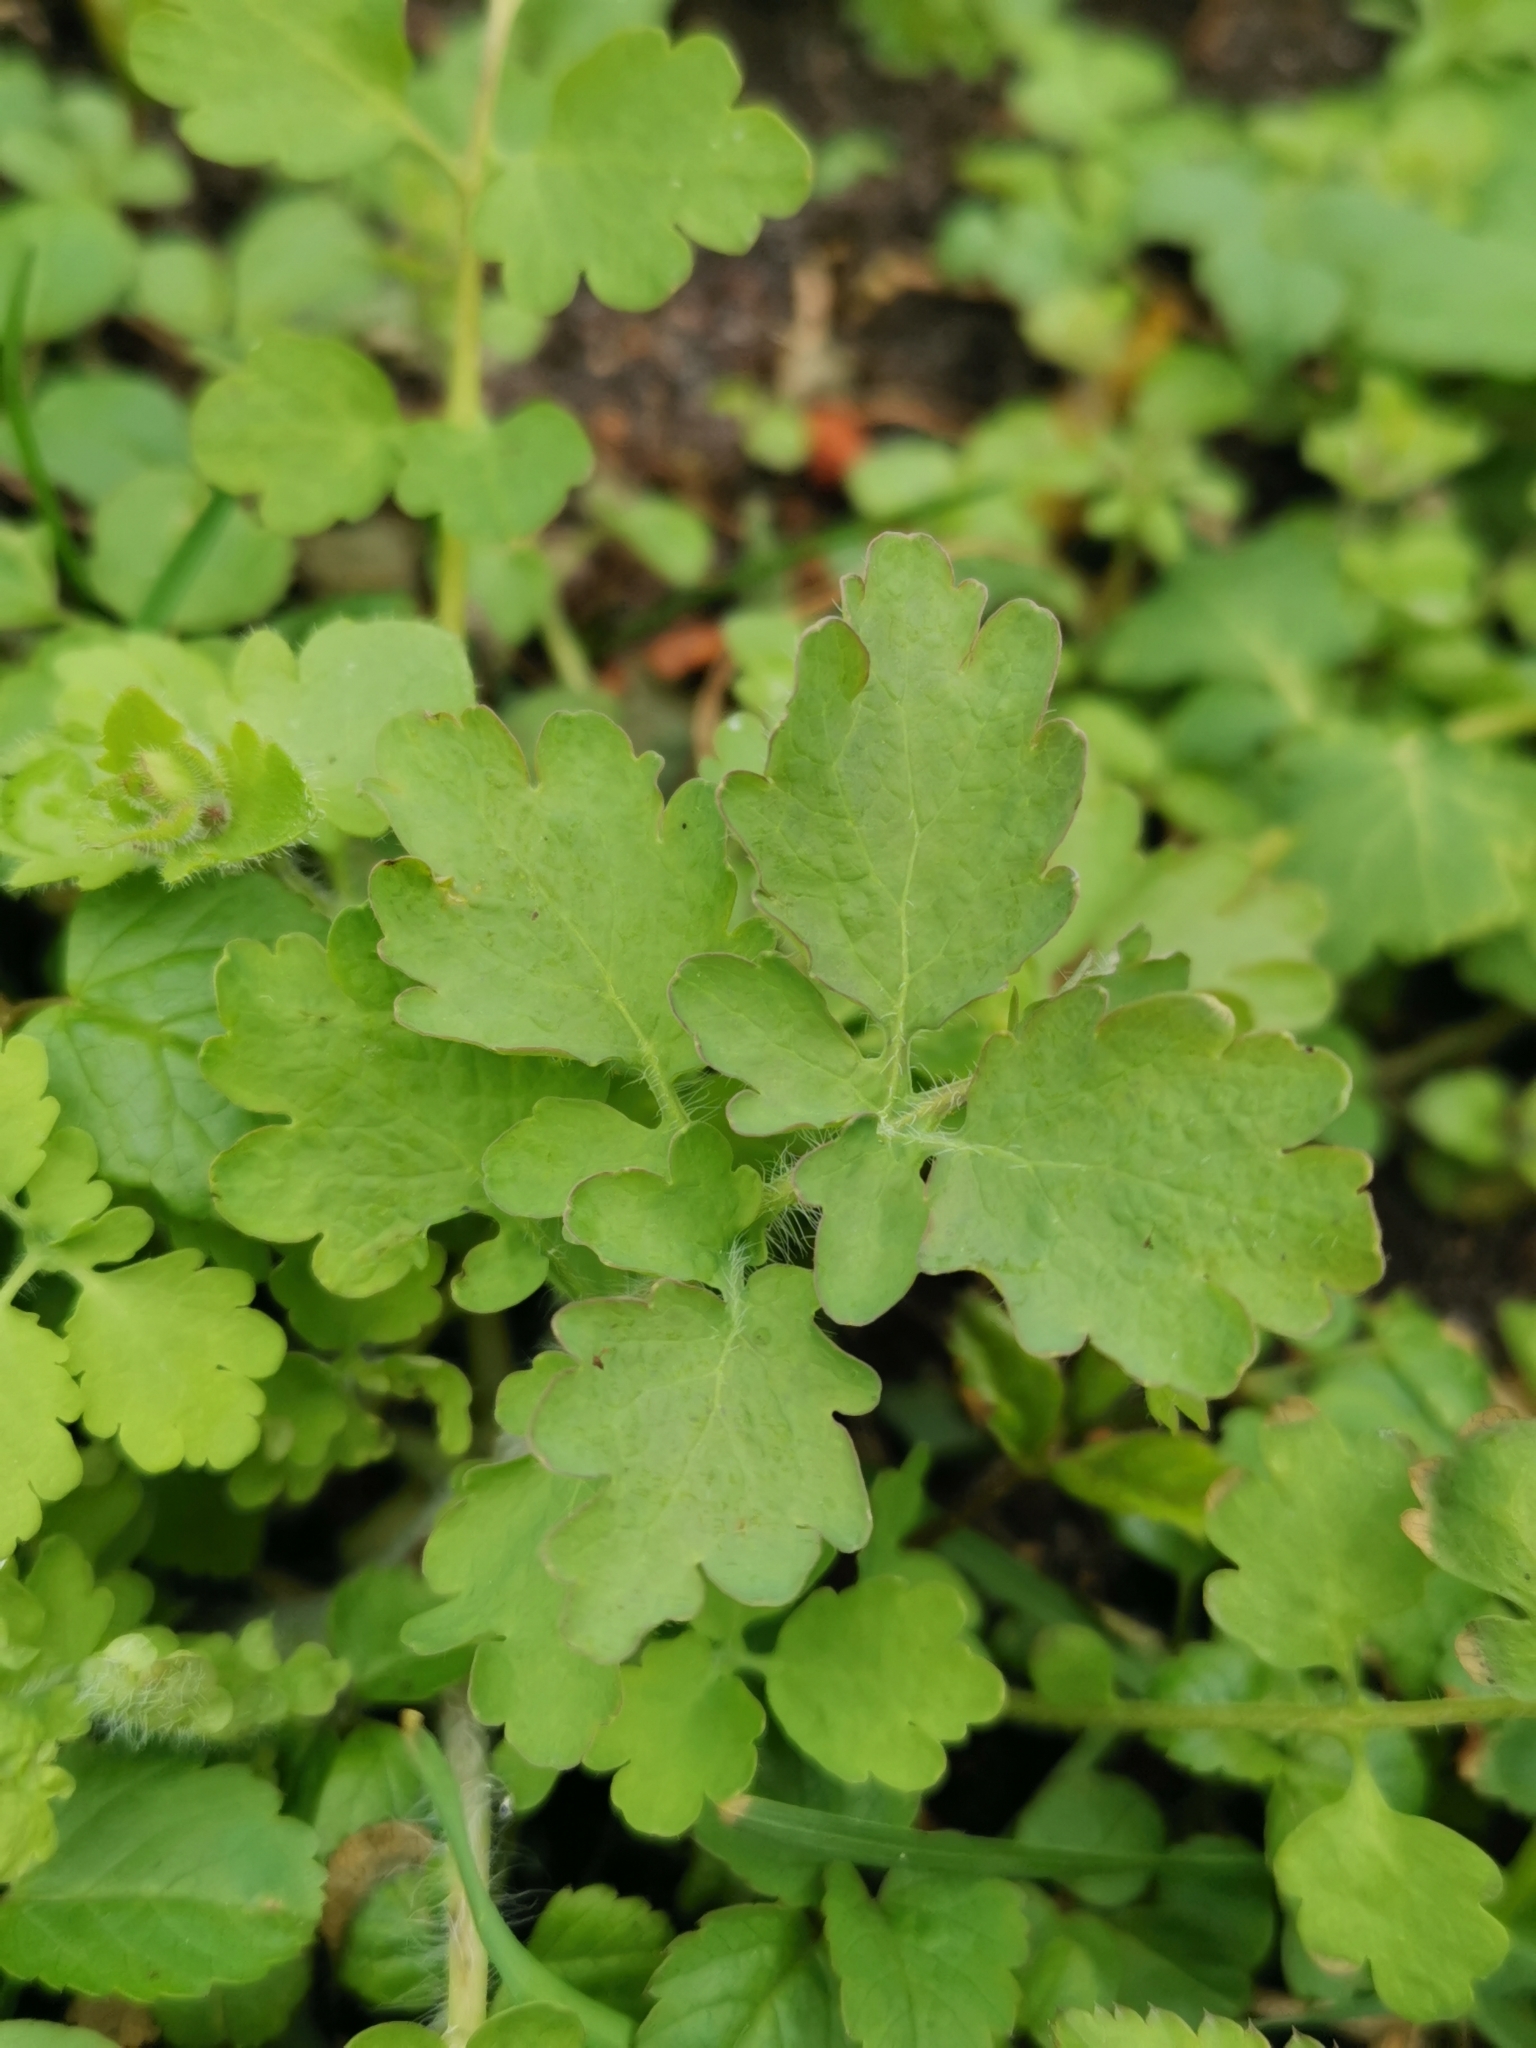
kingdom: Plantae
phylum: Tracheophyta
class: Magnoliopsida
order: Ranunculales
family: Papaveraceae
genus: Chelidonium
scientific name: Chelidonium majus
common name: Greater celandine
